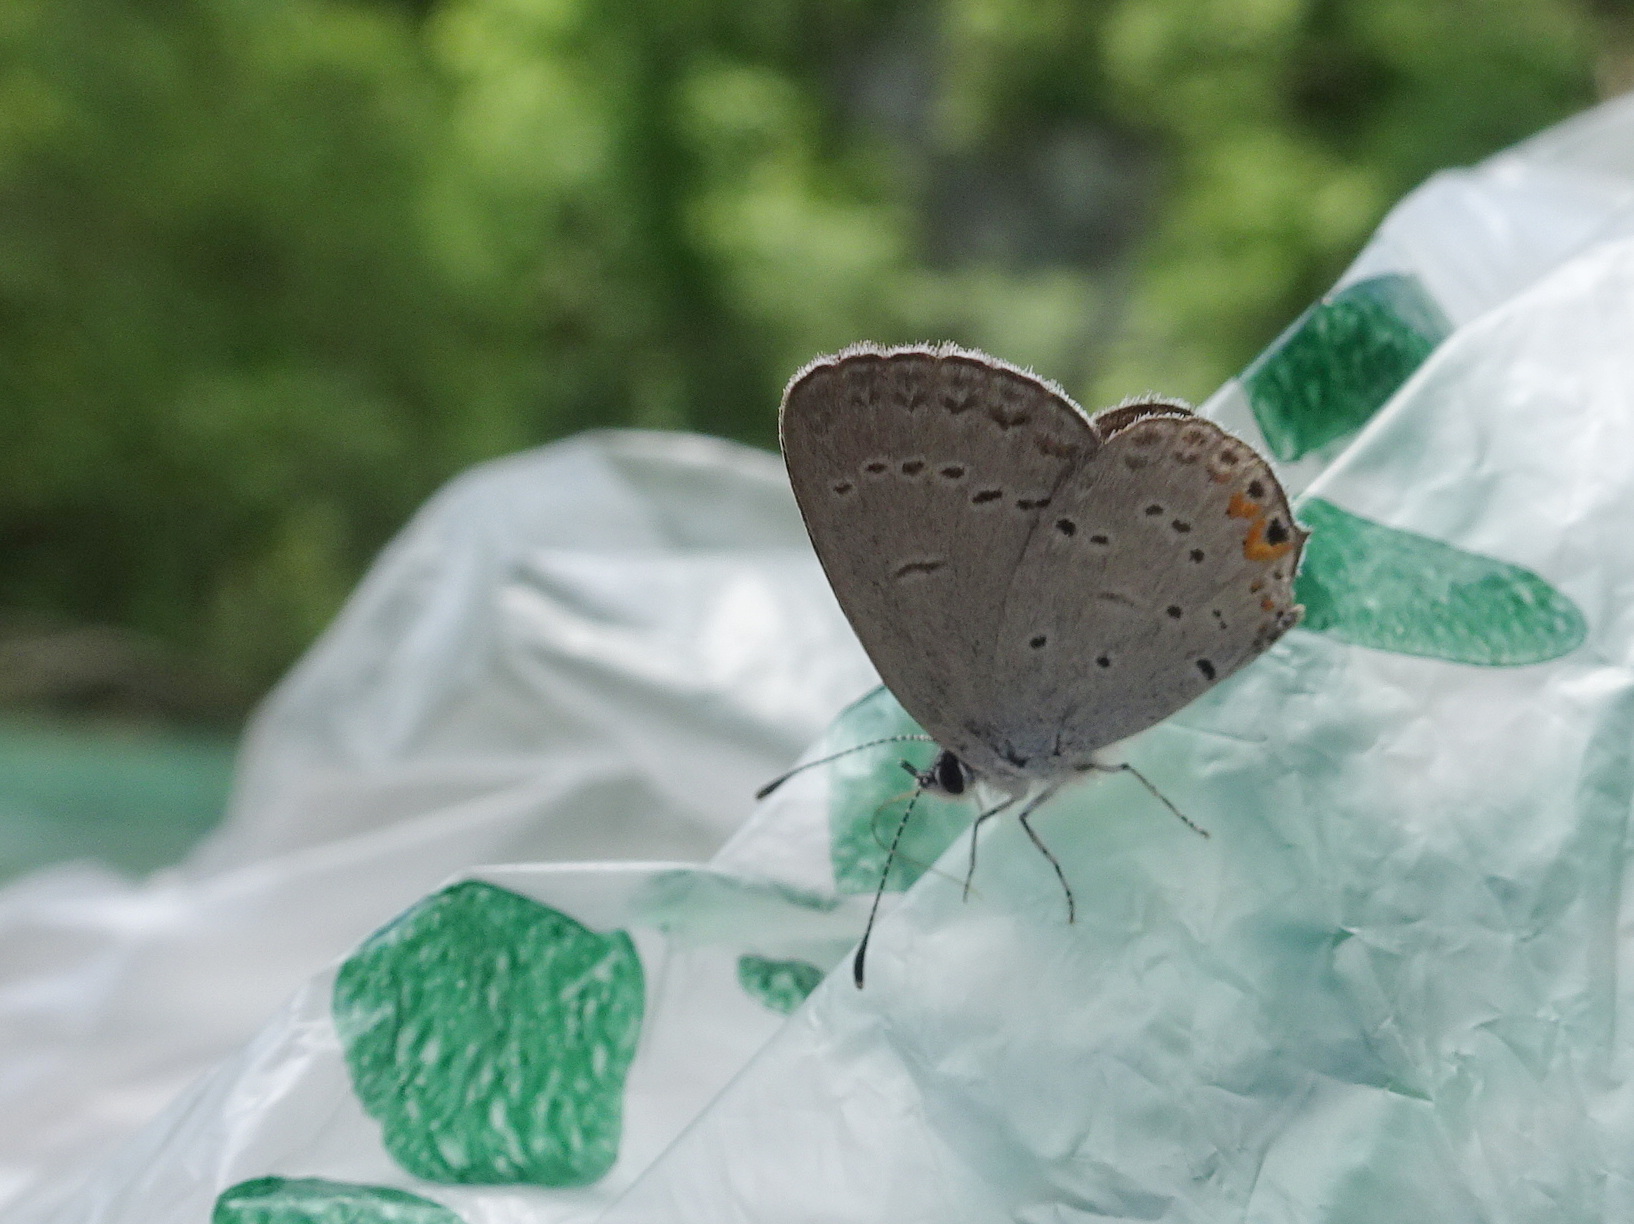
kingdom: Animalia
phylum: Arthropoda
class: Insecta
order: Lepidoptera
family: Lycaenidae
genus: Elkalyce
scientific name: Elkalyce comyntas
